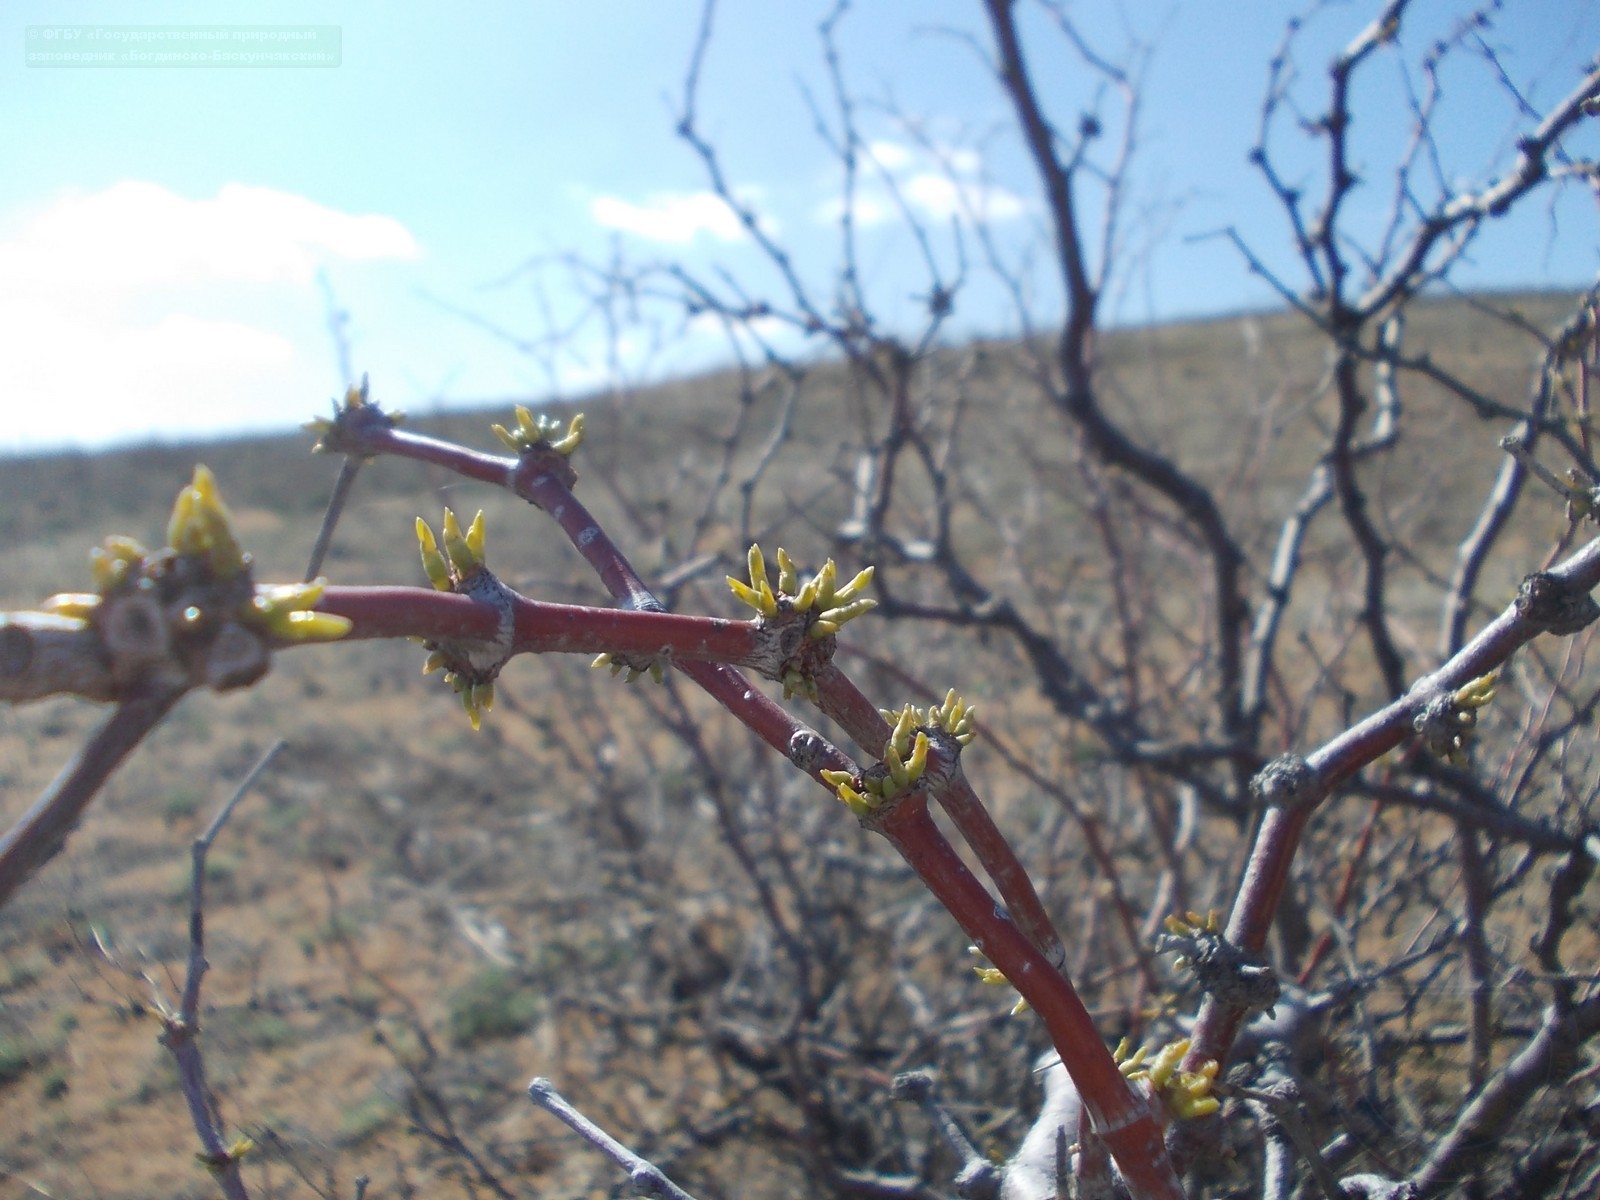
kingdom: Plantae
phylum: Tracheophyta
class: Magnoliopsida
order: Caryophyllales
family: Polygonaceae
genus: Calligonum
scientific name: Calligonum aphyllum
